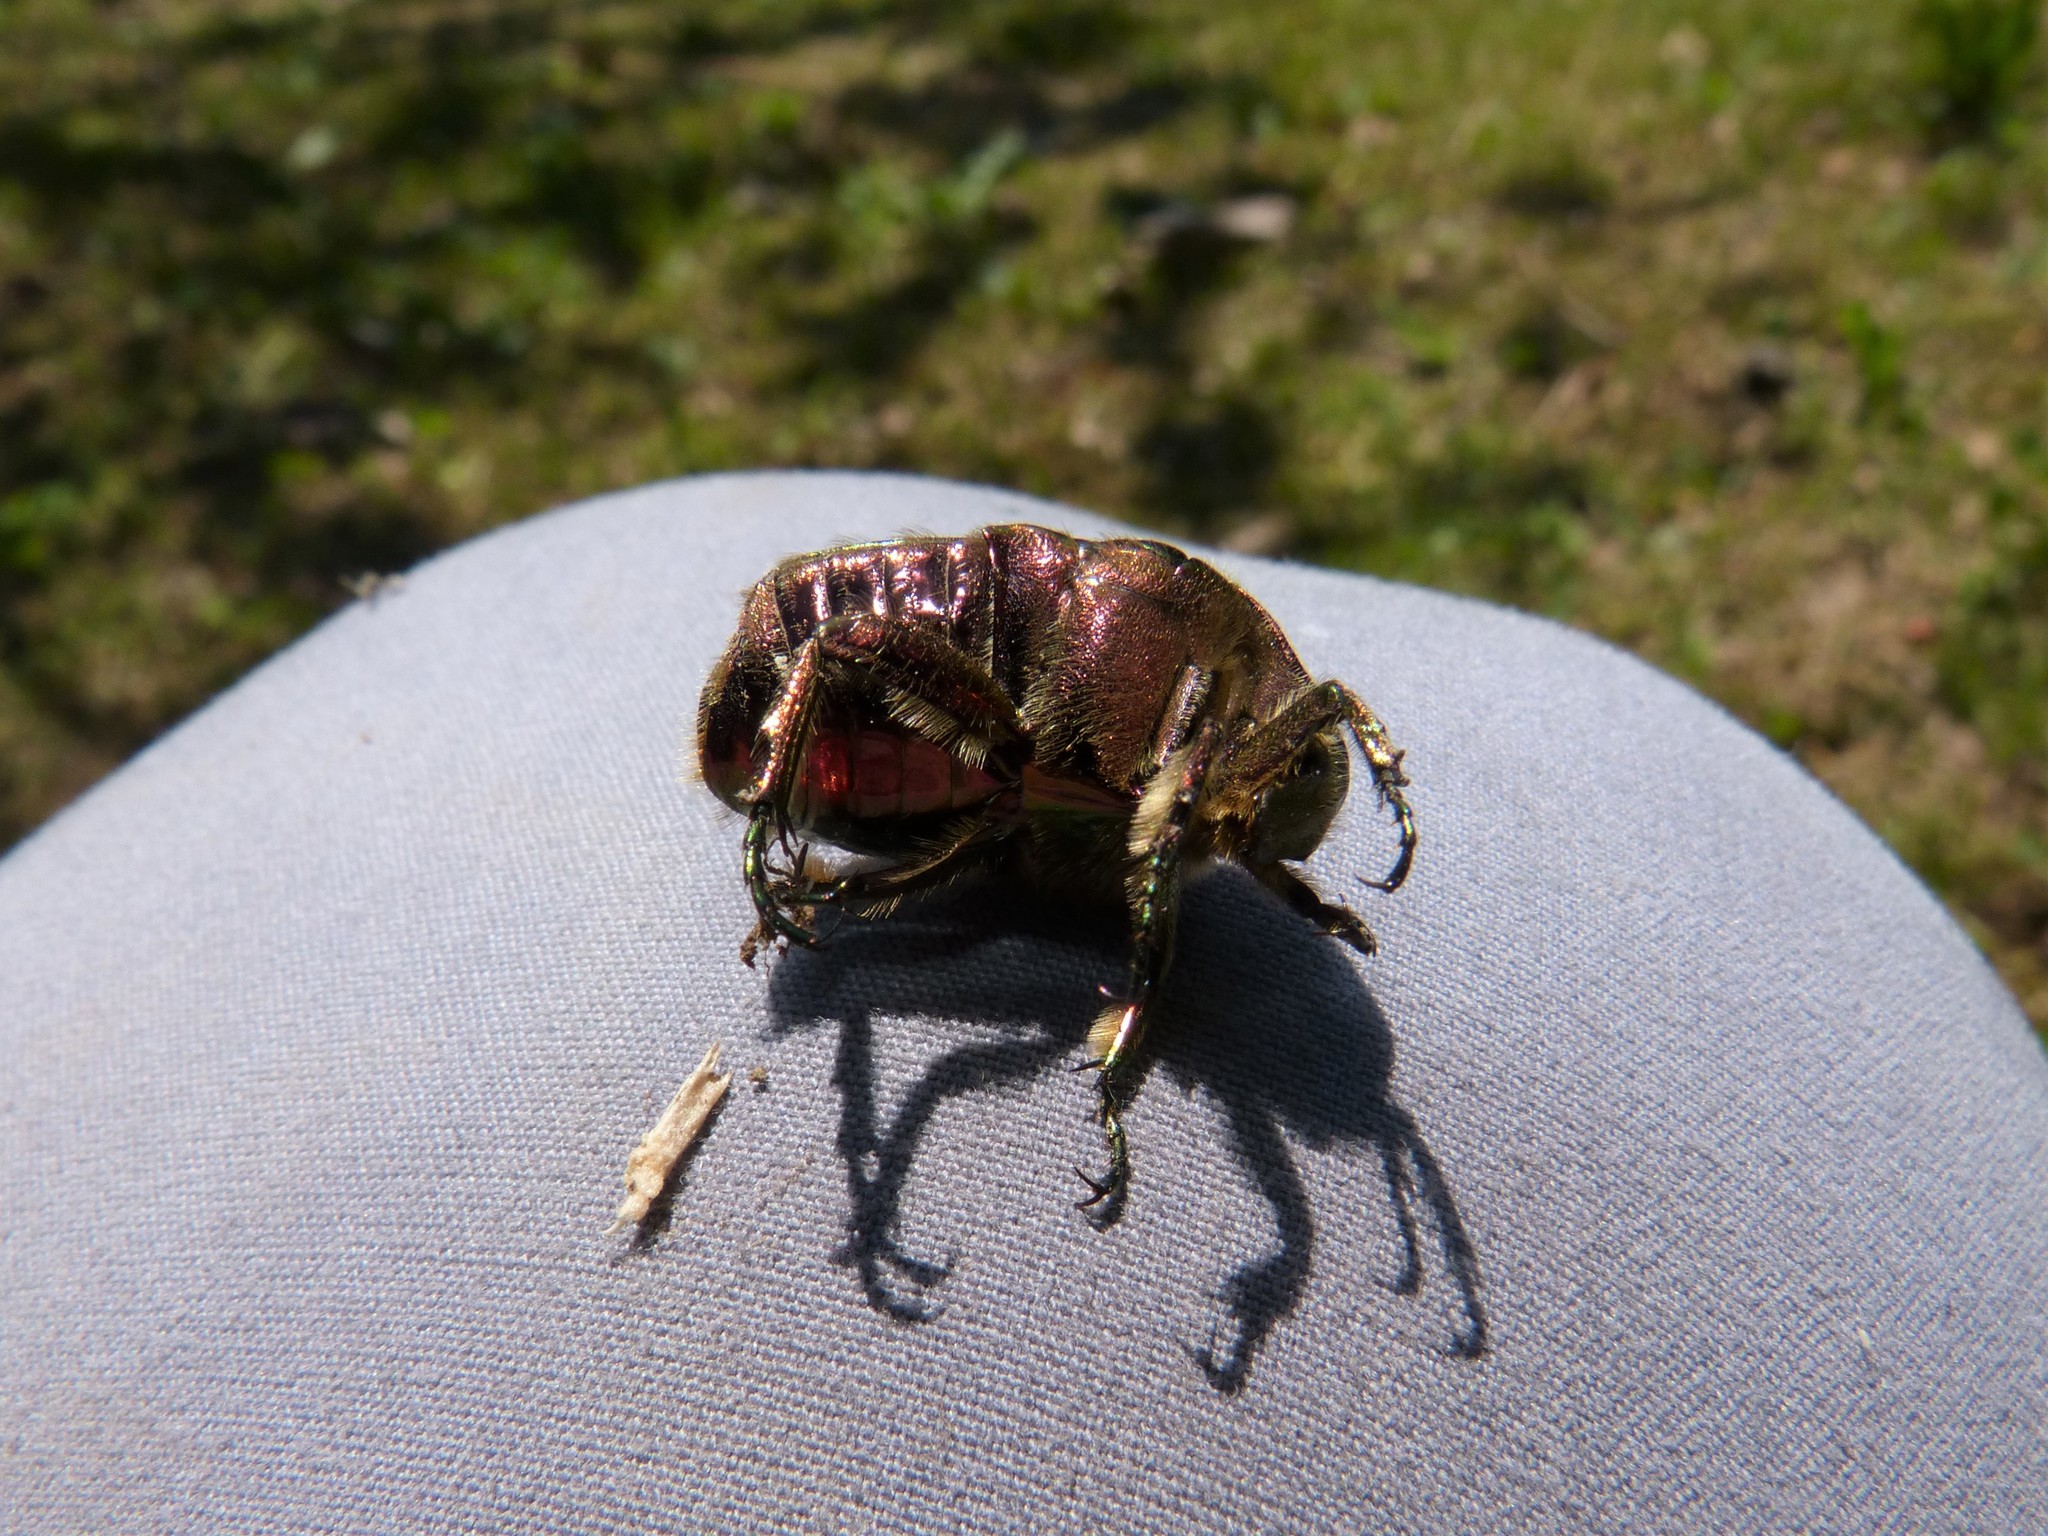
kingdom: Animalia
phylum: Arthropoda
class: Insecta
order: Coleoptera
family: Scarabaeidae
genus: Cetonia
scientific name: Cetonia aurata
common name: Rose chafer
